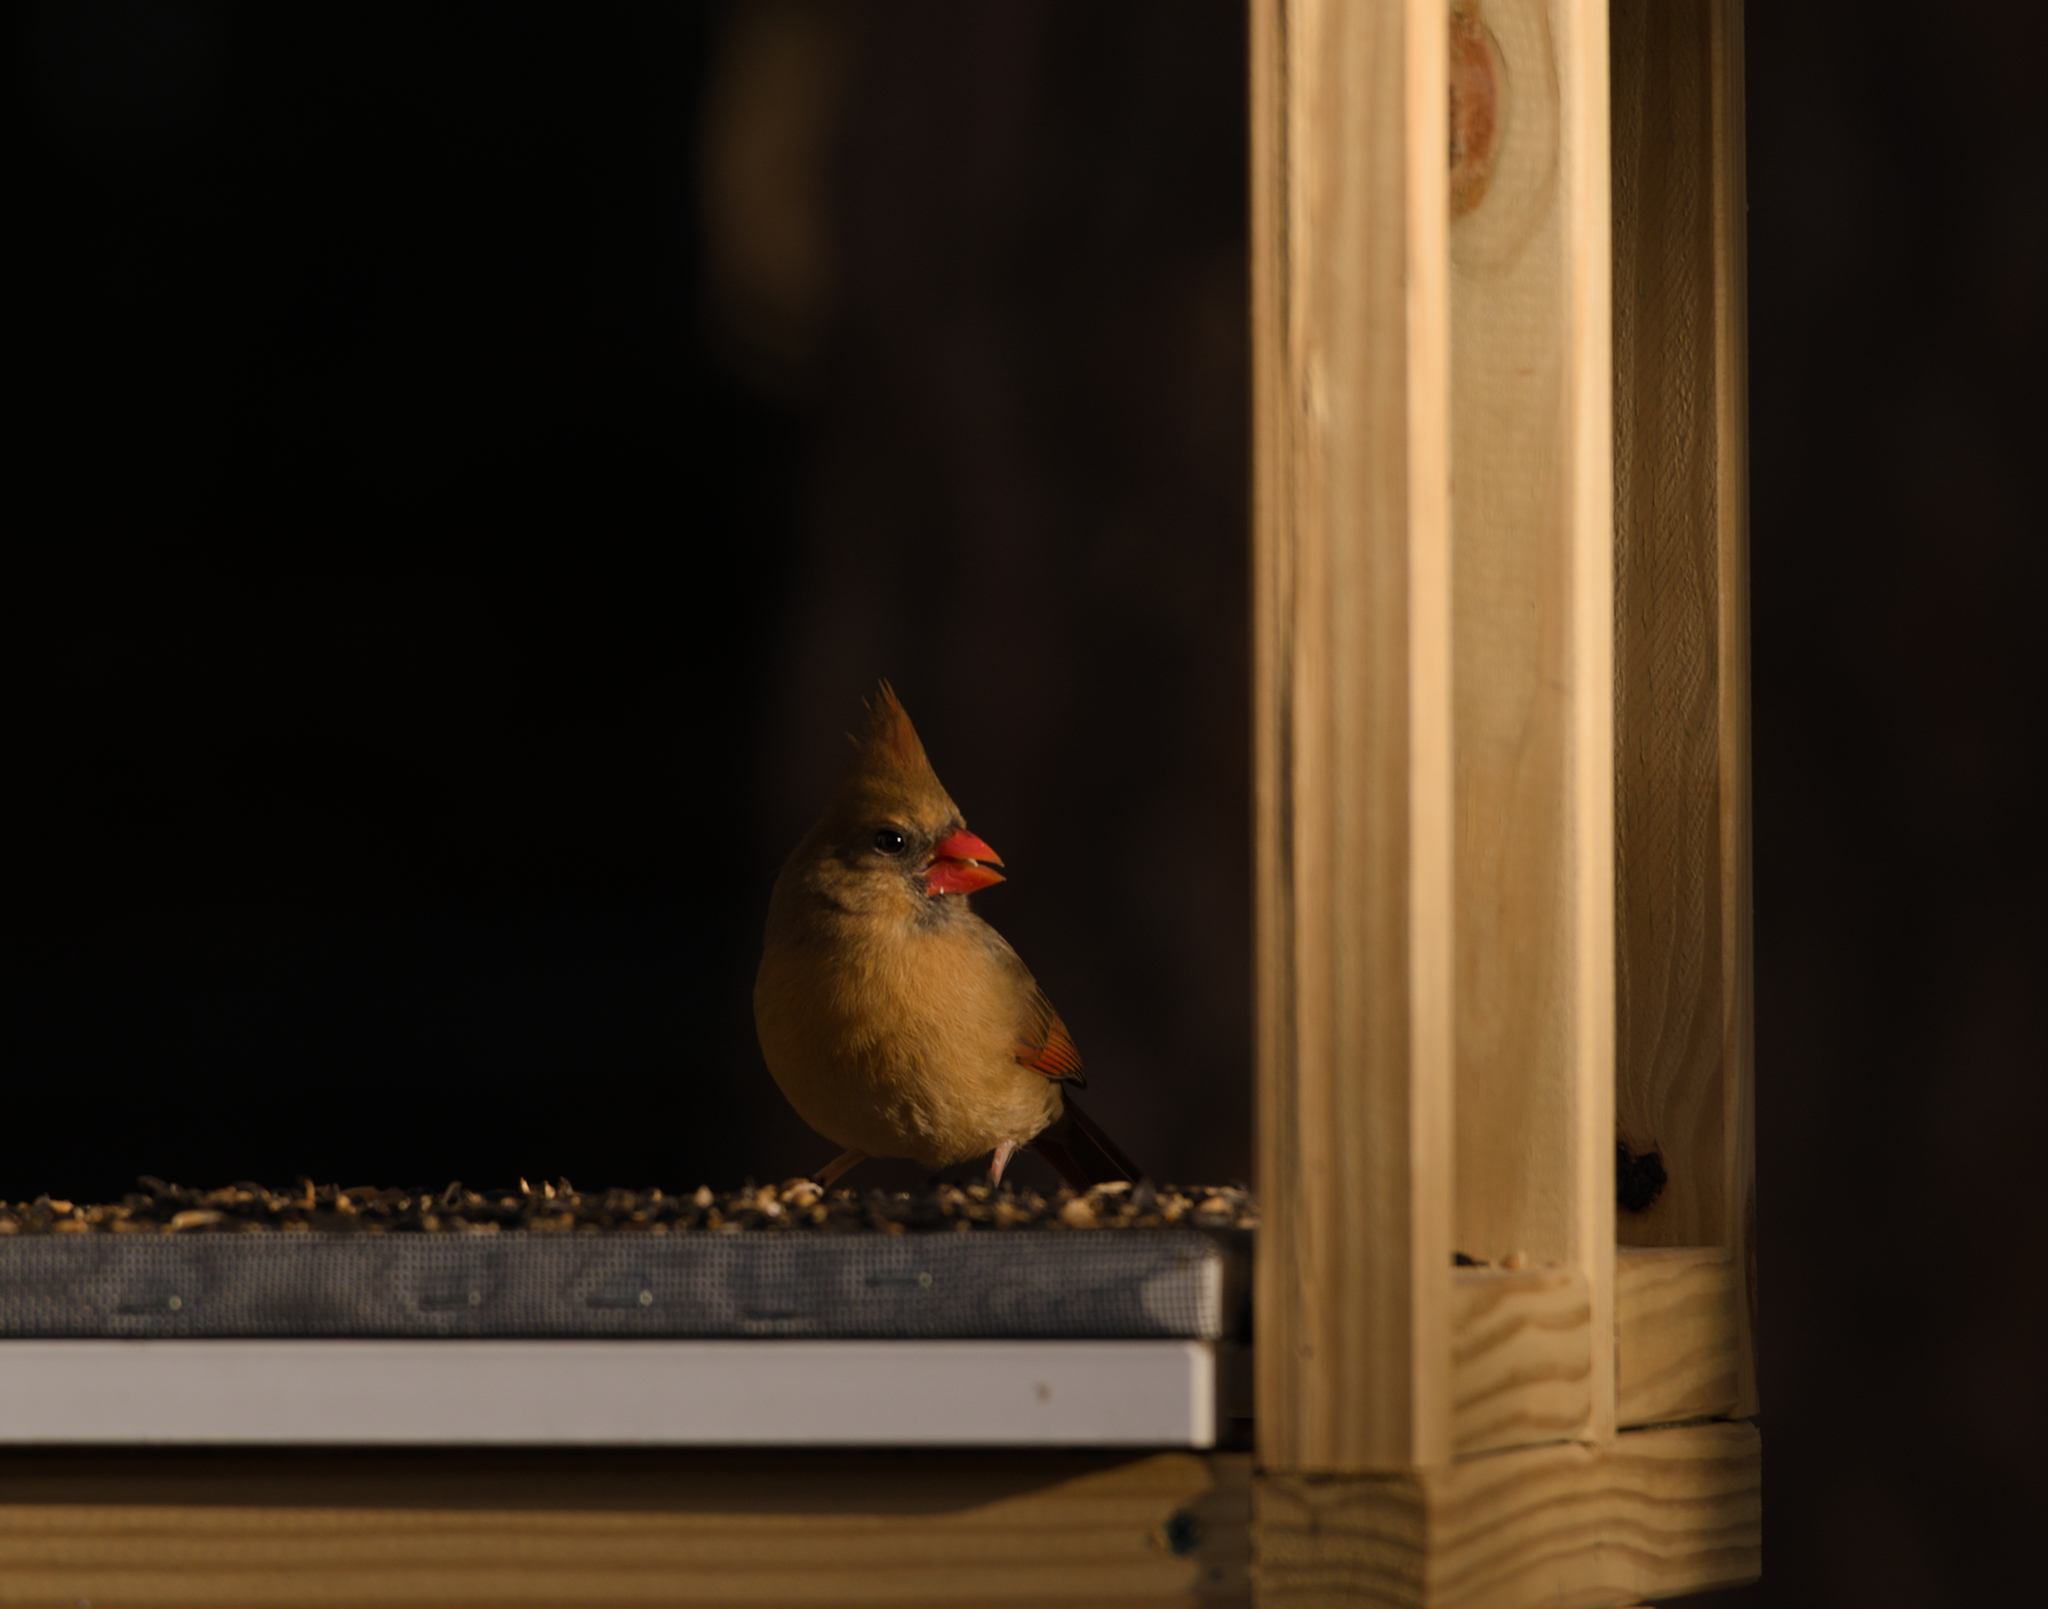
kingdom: Animalia
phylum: Chordata
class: Aves
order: Passeriformes
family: Cardinalidae
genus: Cardinalis
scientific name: Cardinalis cardinalis
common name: Northern cardinal
